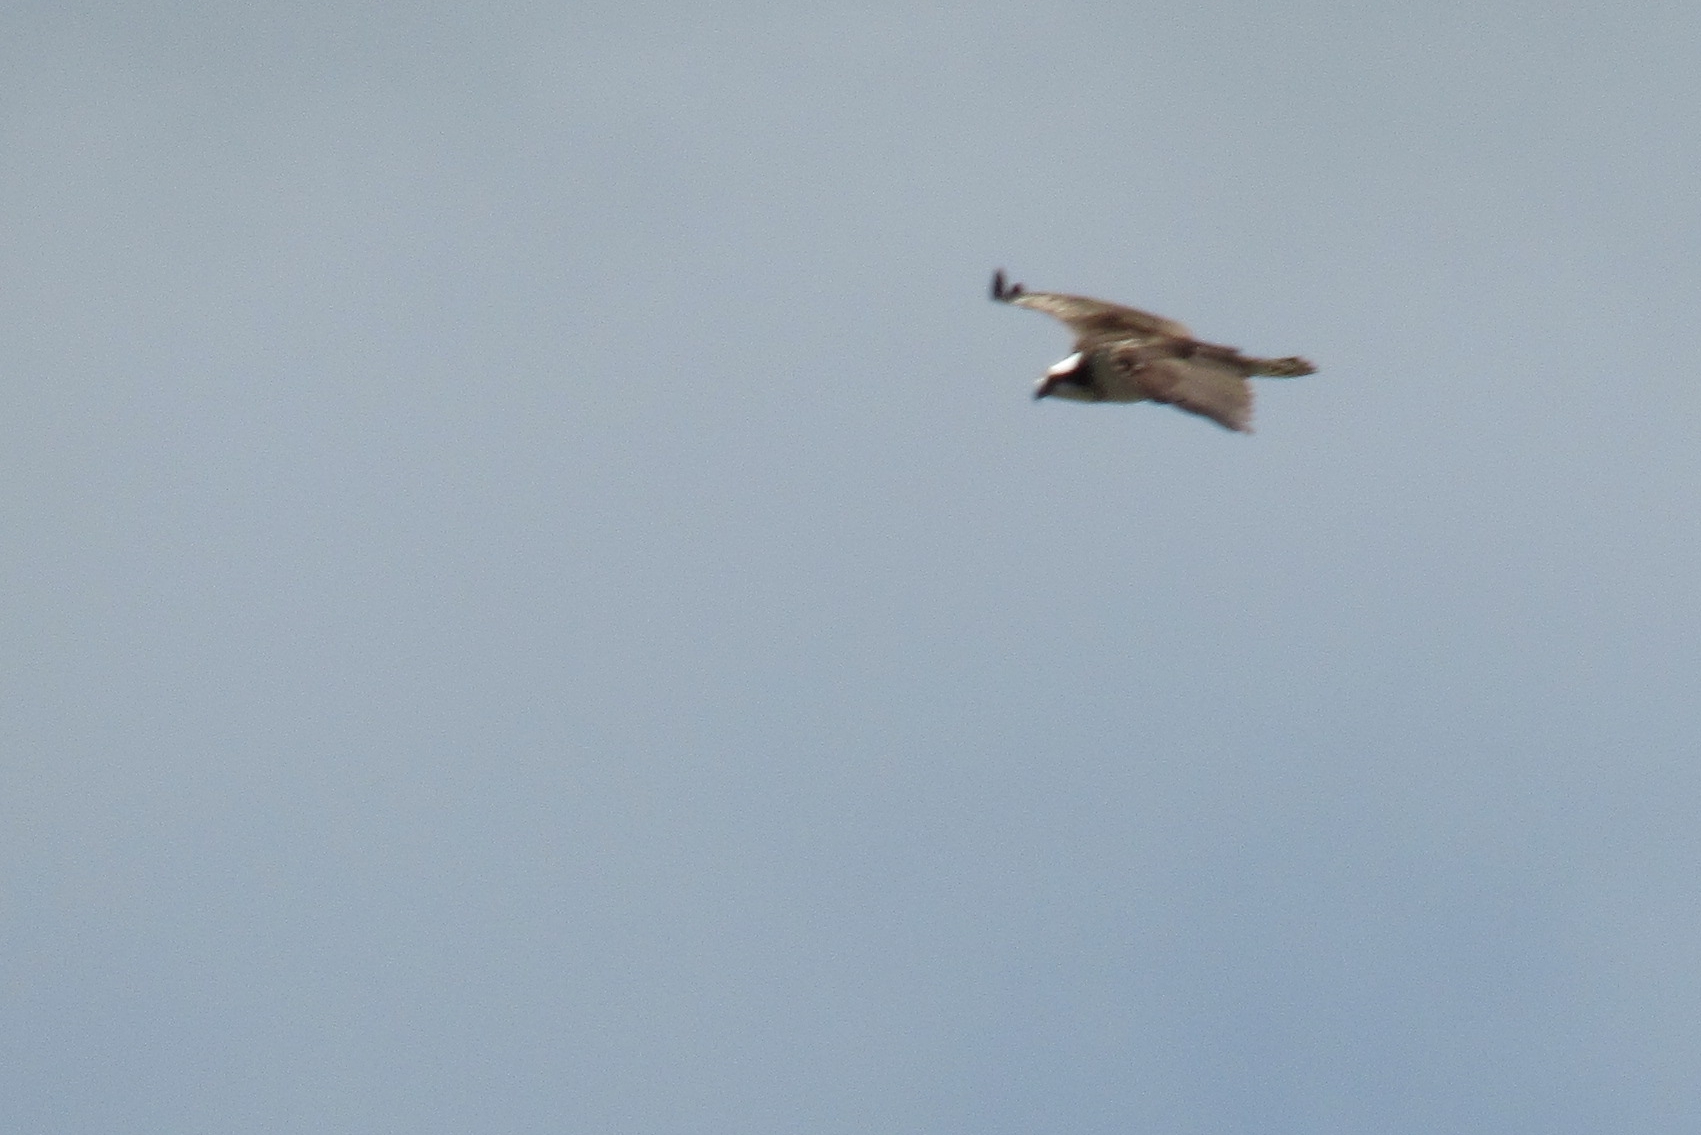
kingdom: Animalia
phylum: Chordata
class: Aves
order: Accipitriformes
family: Pandionidae
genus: Pandion
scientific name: Pandion haliaetus
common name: Osprey
